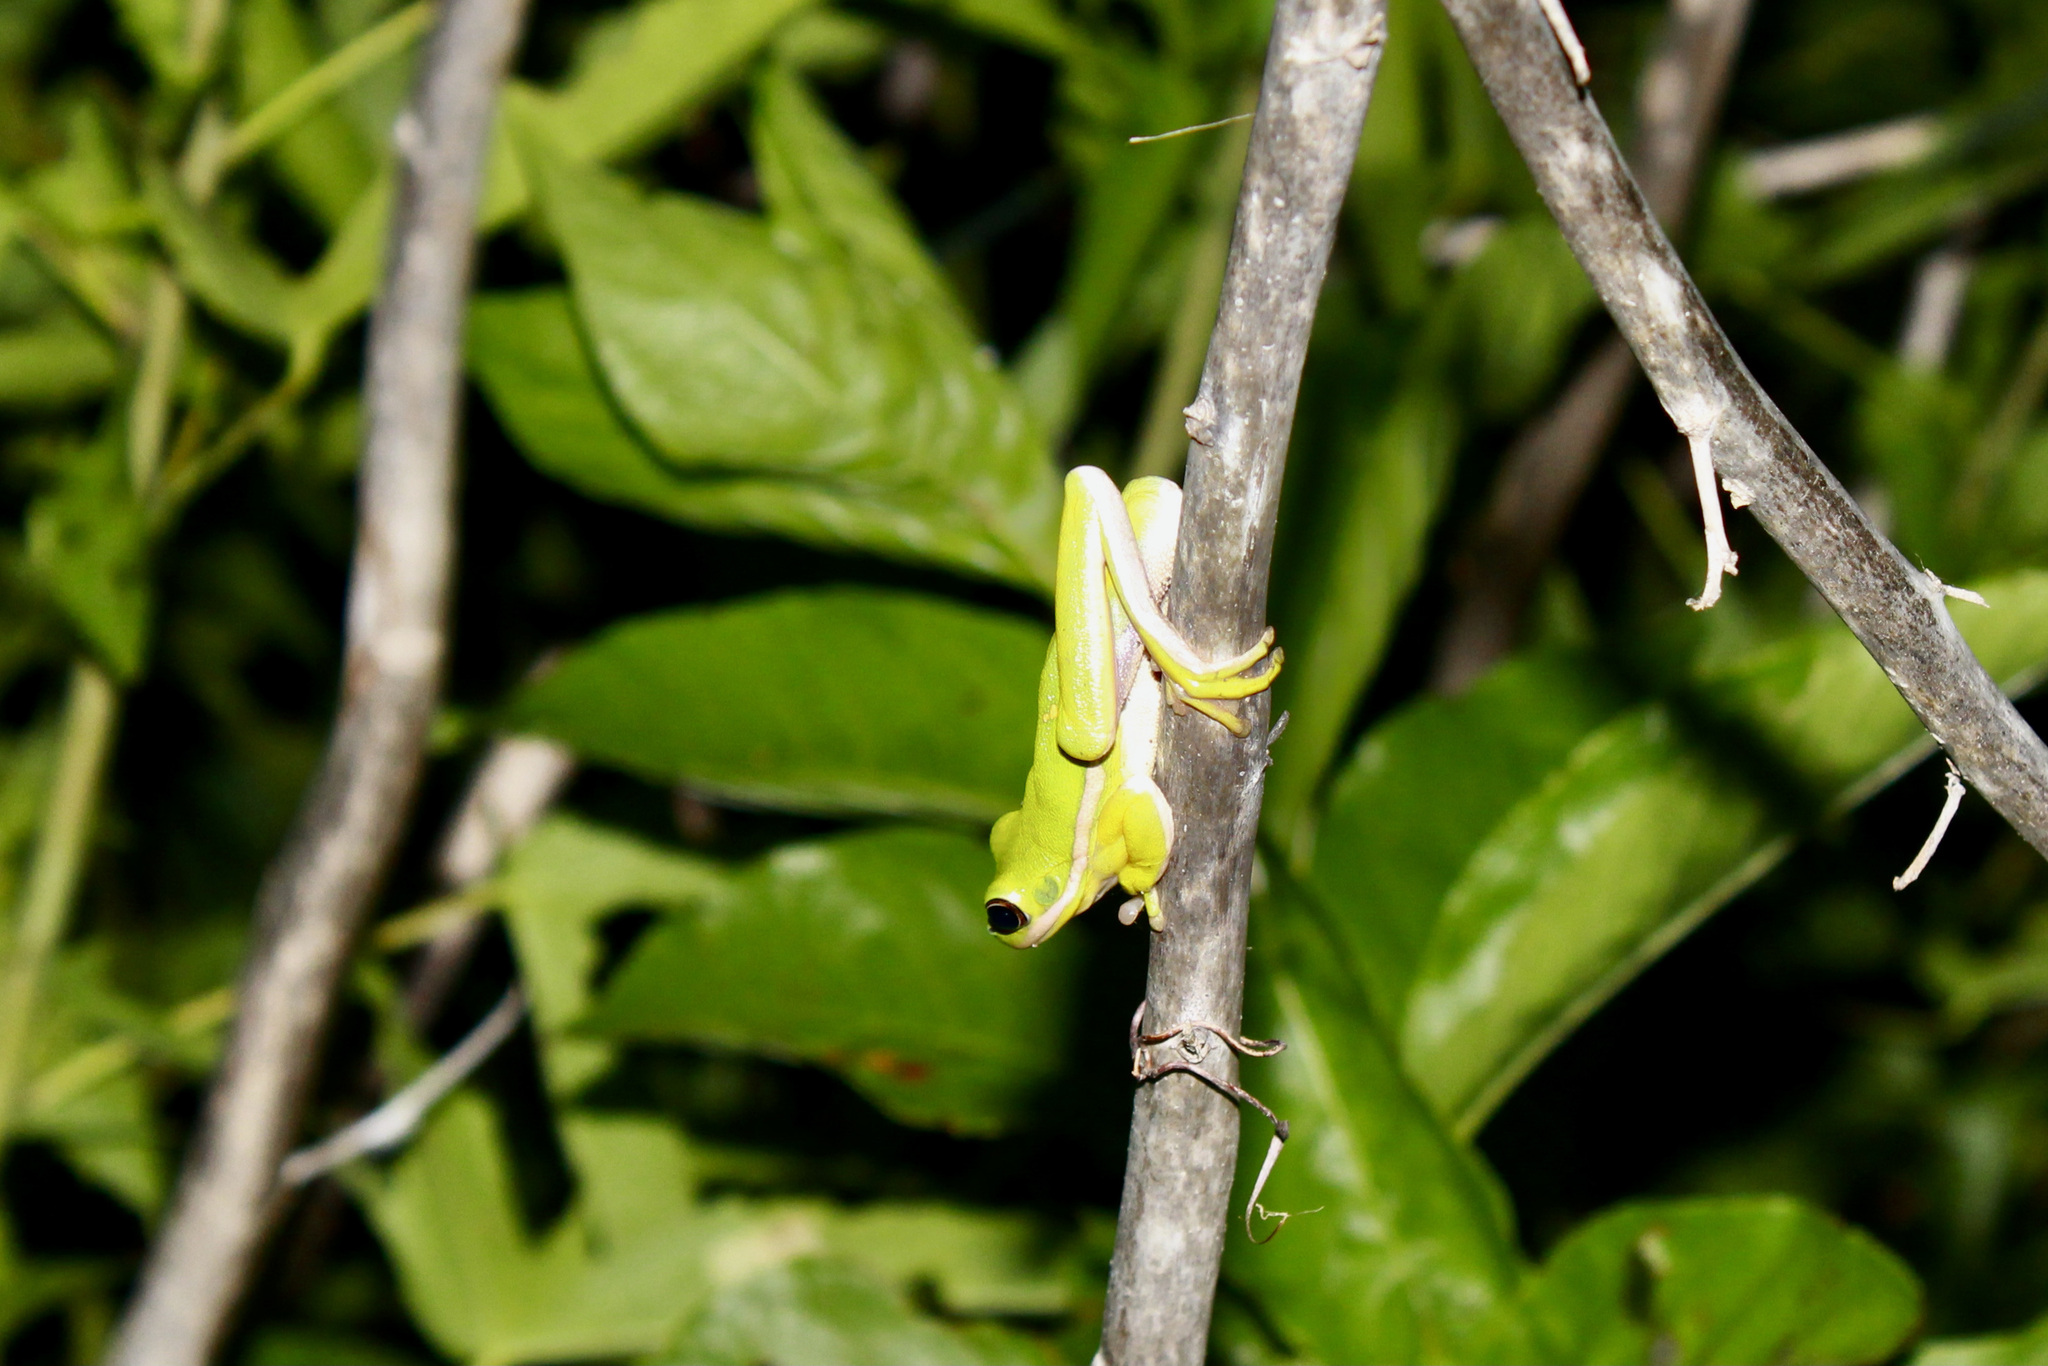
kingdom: Animalia
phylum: Chordata
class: Amphibia
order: Anura
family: Hylidae
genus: Dryophytes
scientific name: Dryophytes cinereus
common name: Green treefrog
